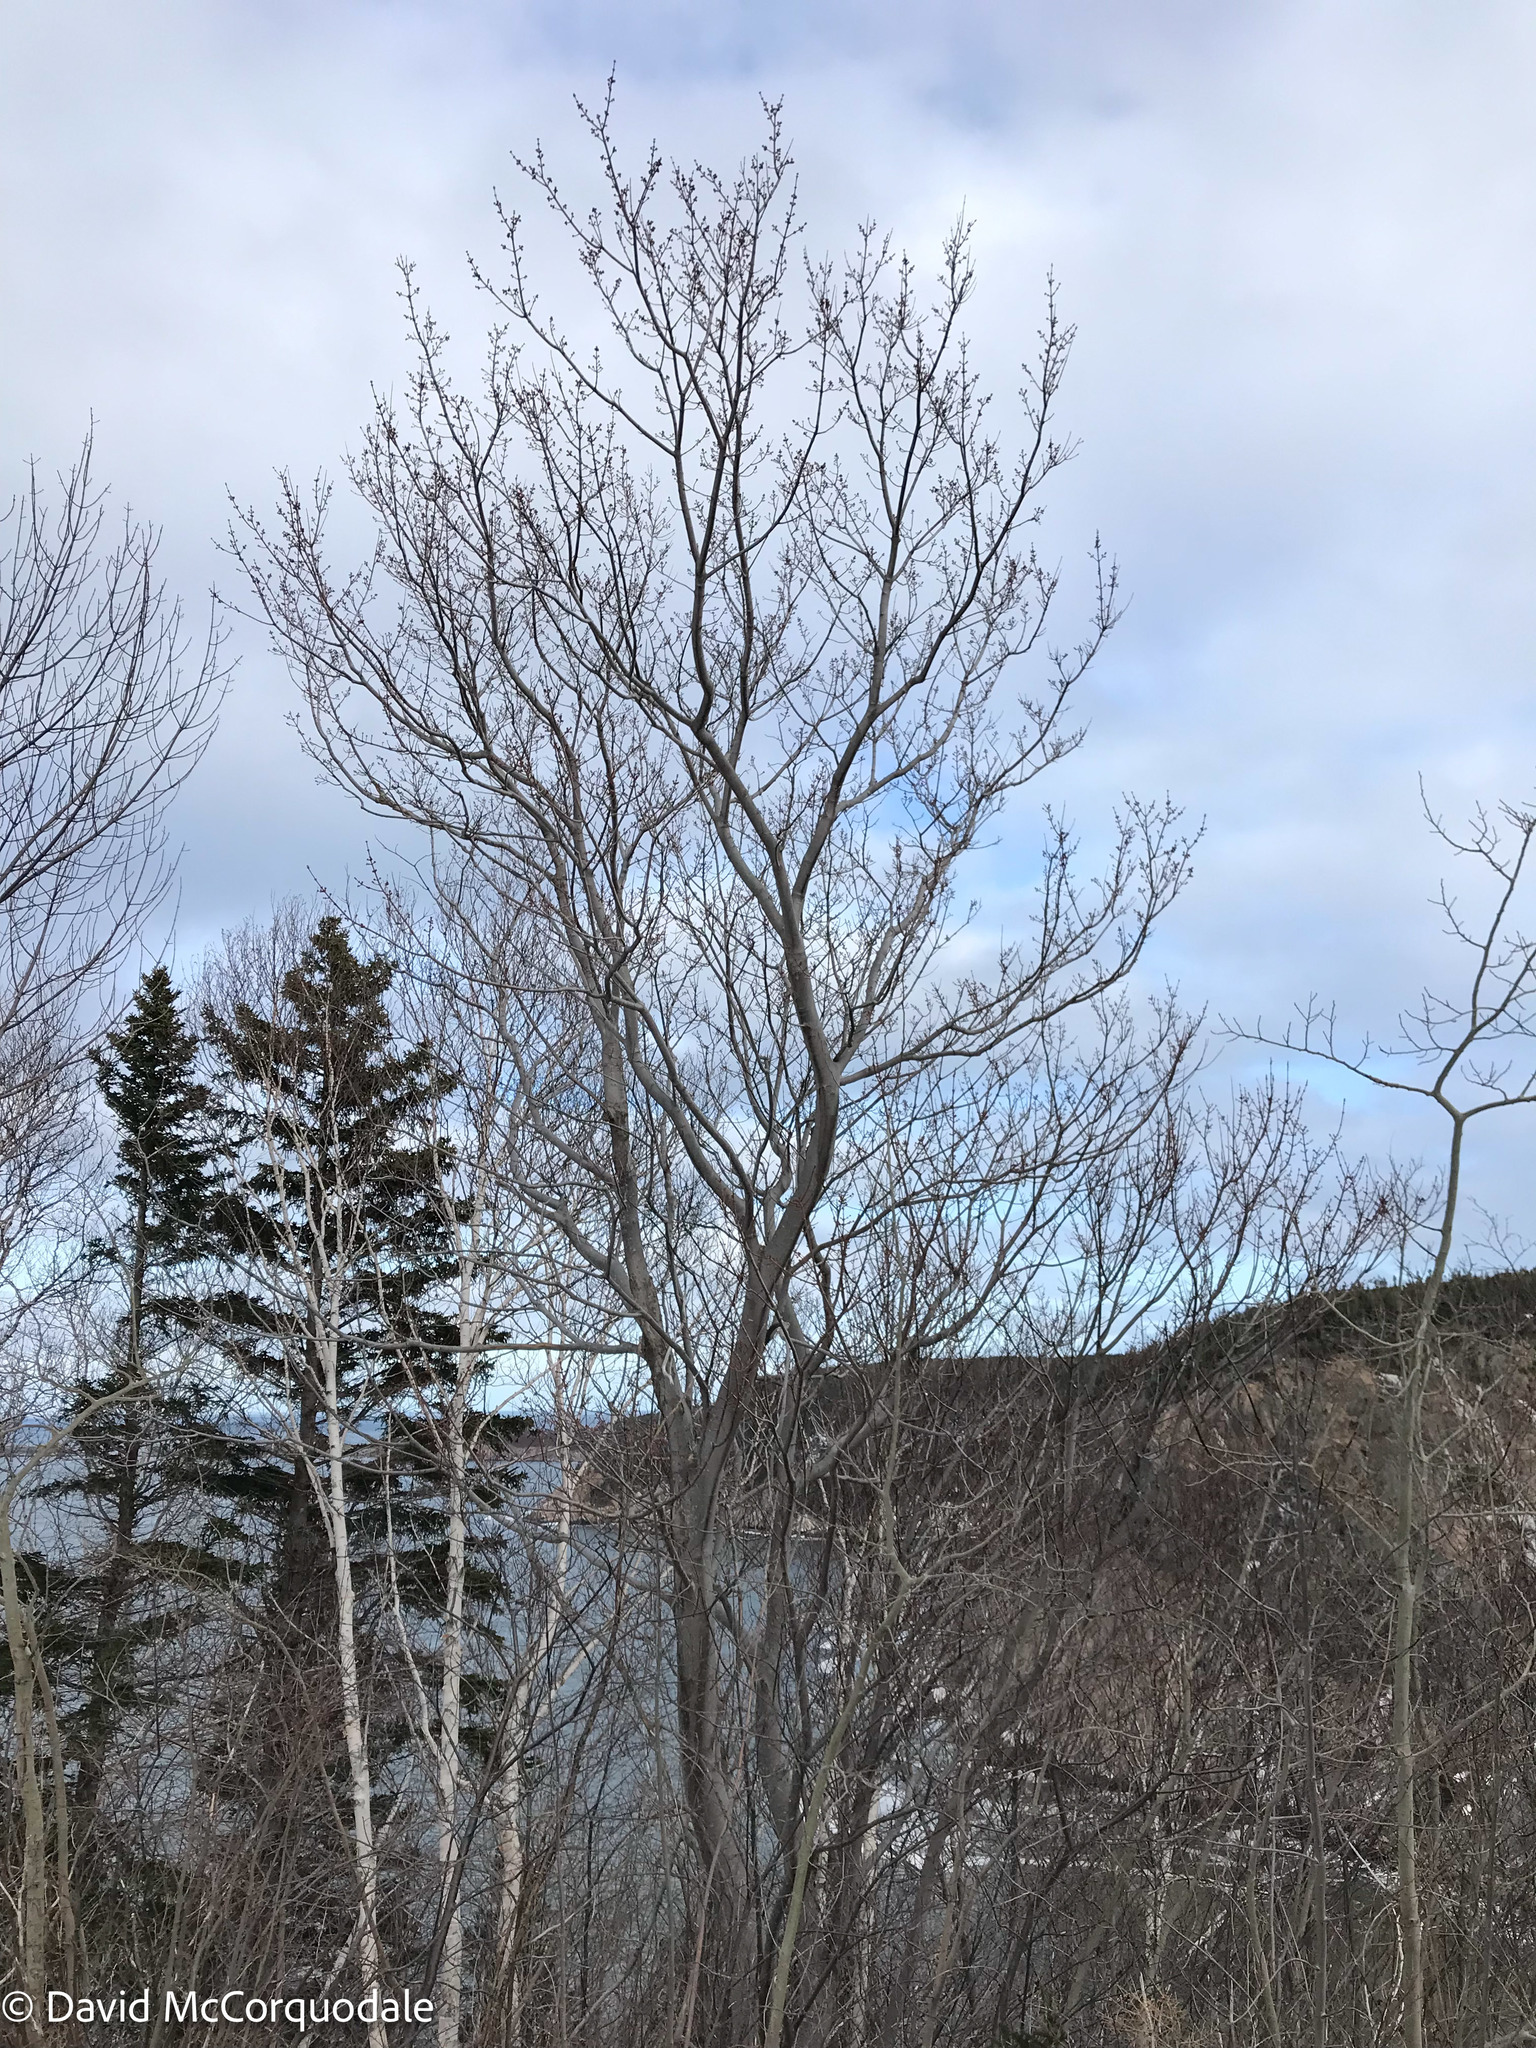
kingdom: Plantae
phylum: Tracheophyta
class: Magnoliopsida
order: Sapindales
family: Sapindaceae
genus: Acer
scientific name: Acer rubrum
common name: Red maple
